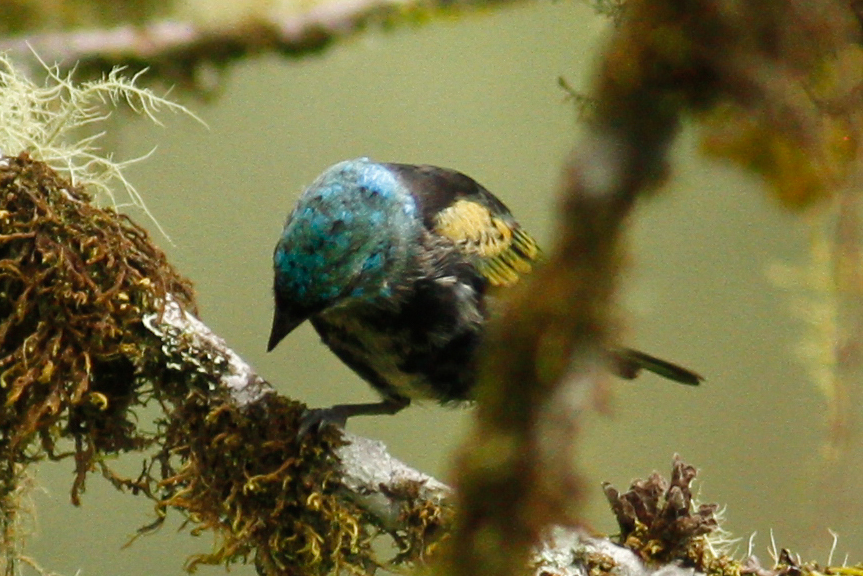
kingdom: Animalia
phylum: Chordata
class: Aves
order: Passeriformes
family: Thraupidae
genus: Stilpnia
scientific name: Stilpnia cyanicollis
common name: Blue-necked tanager
